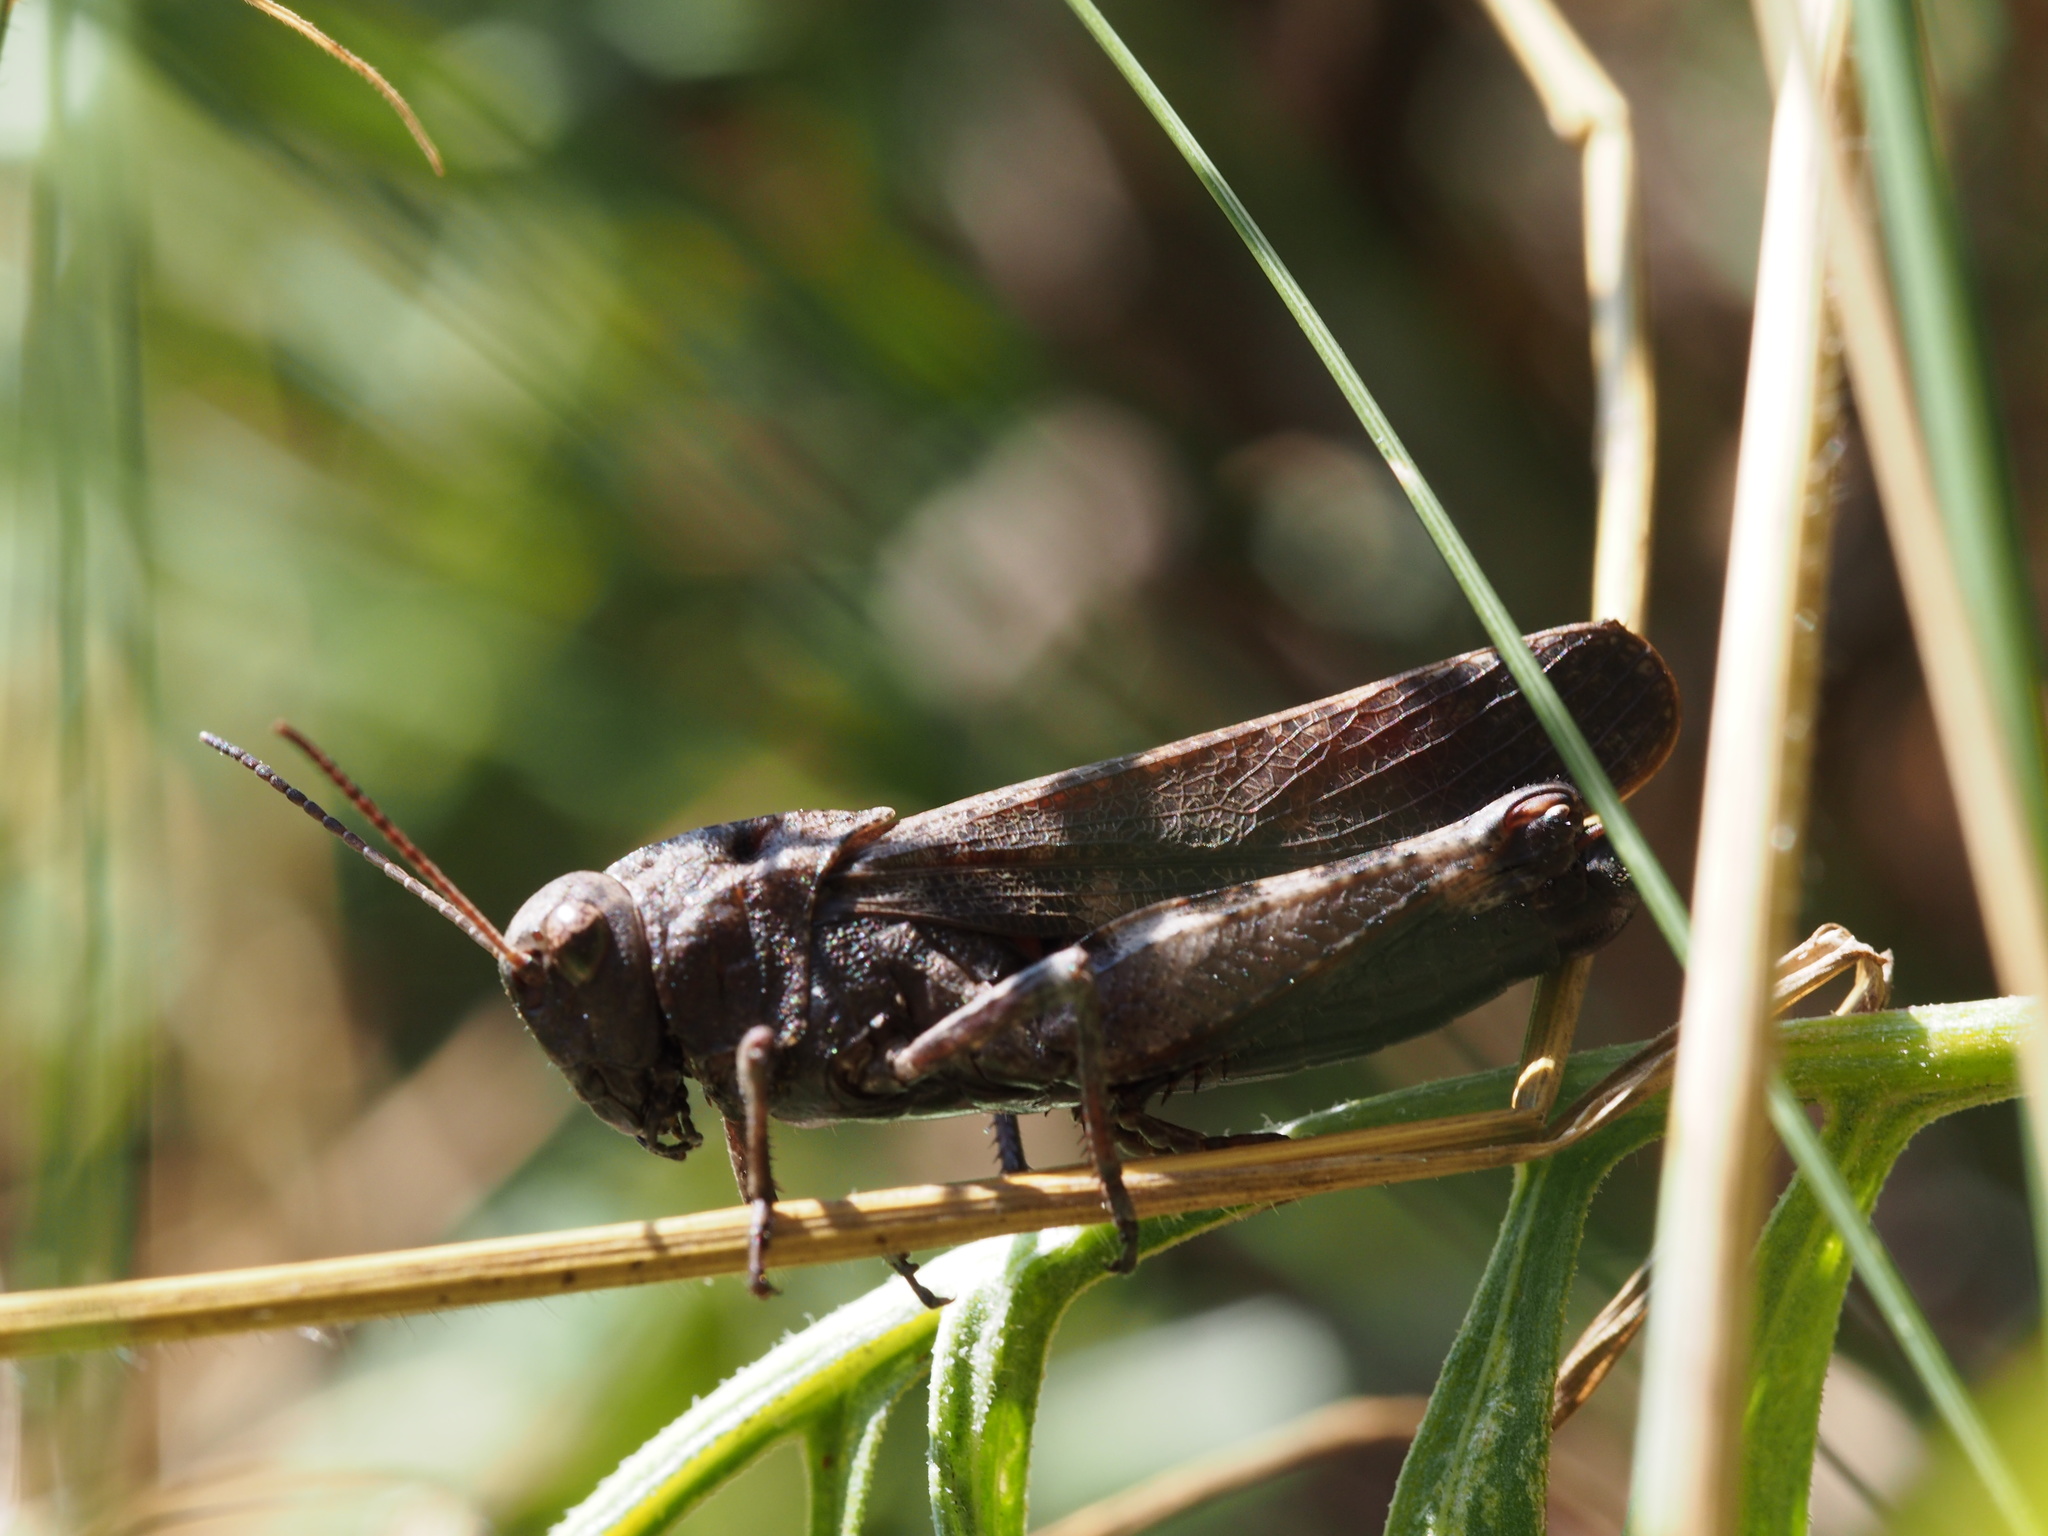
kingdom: Animalia
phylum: Arthropoda
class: Insecta
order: Orthoptera
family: Acrididae
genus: Psophus
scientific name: Psophus stridulus
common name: Rattle grasshopper
